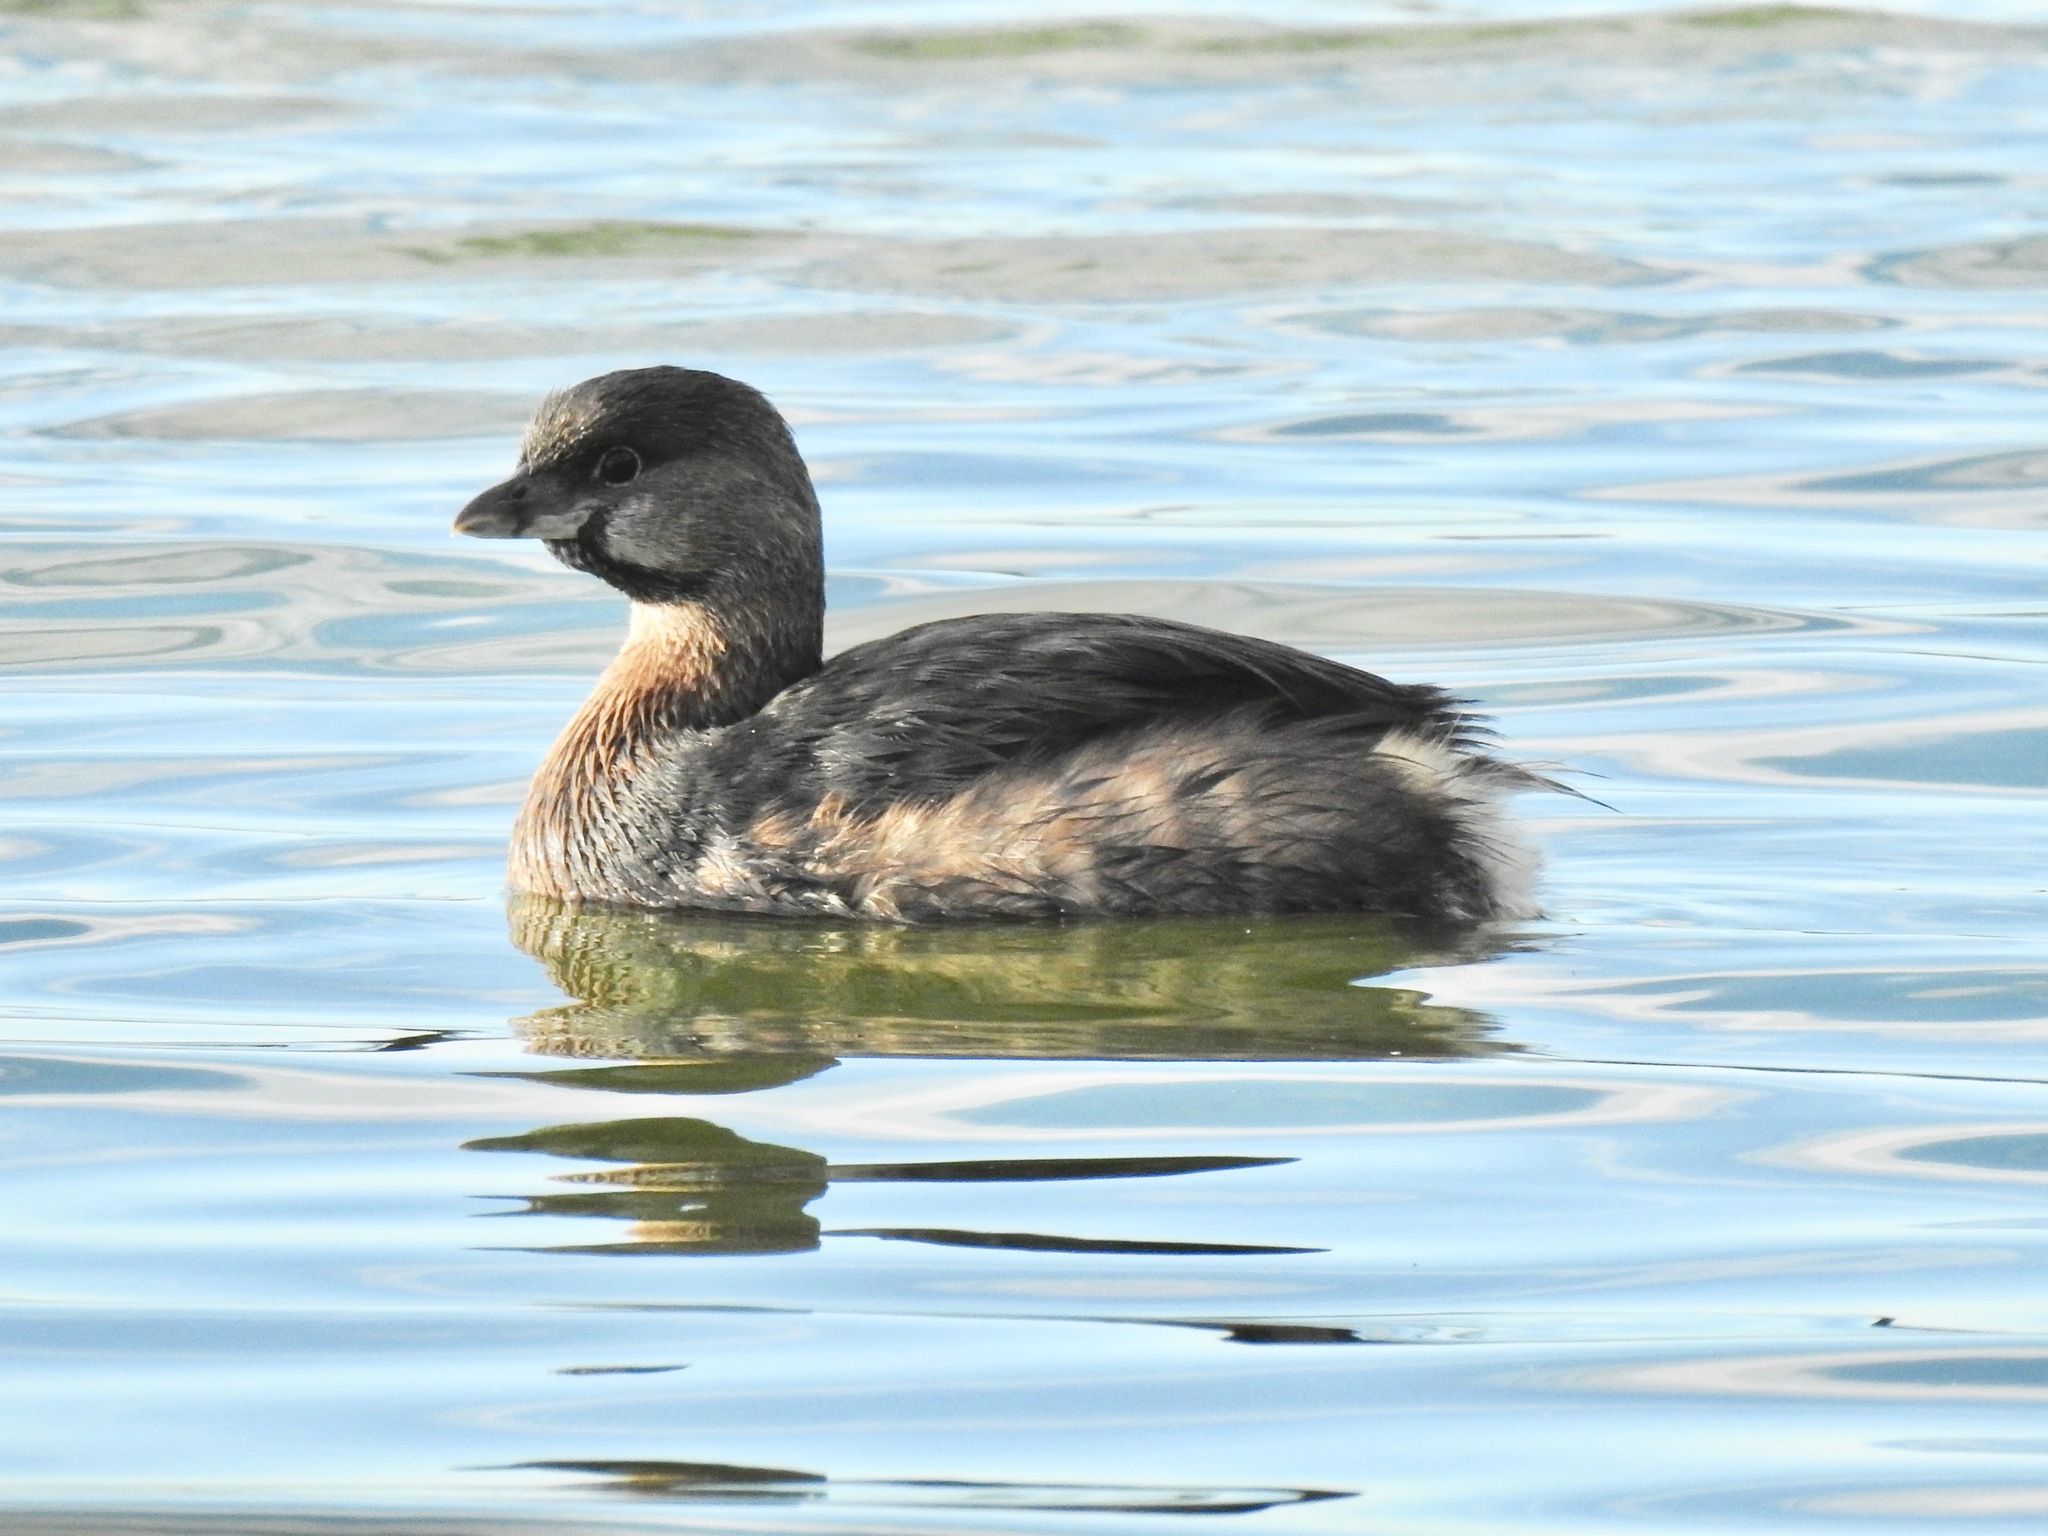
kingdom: Animalia
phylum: Chordata
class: Aves
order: Podicipediformes
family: Podicipedidae
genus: Podilymbus
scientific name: Podilymbus podiceps
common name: Pied-billed grebe
